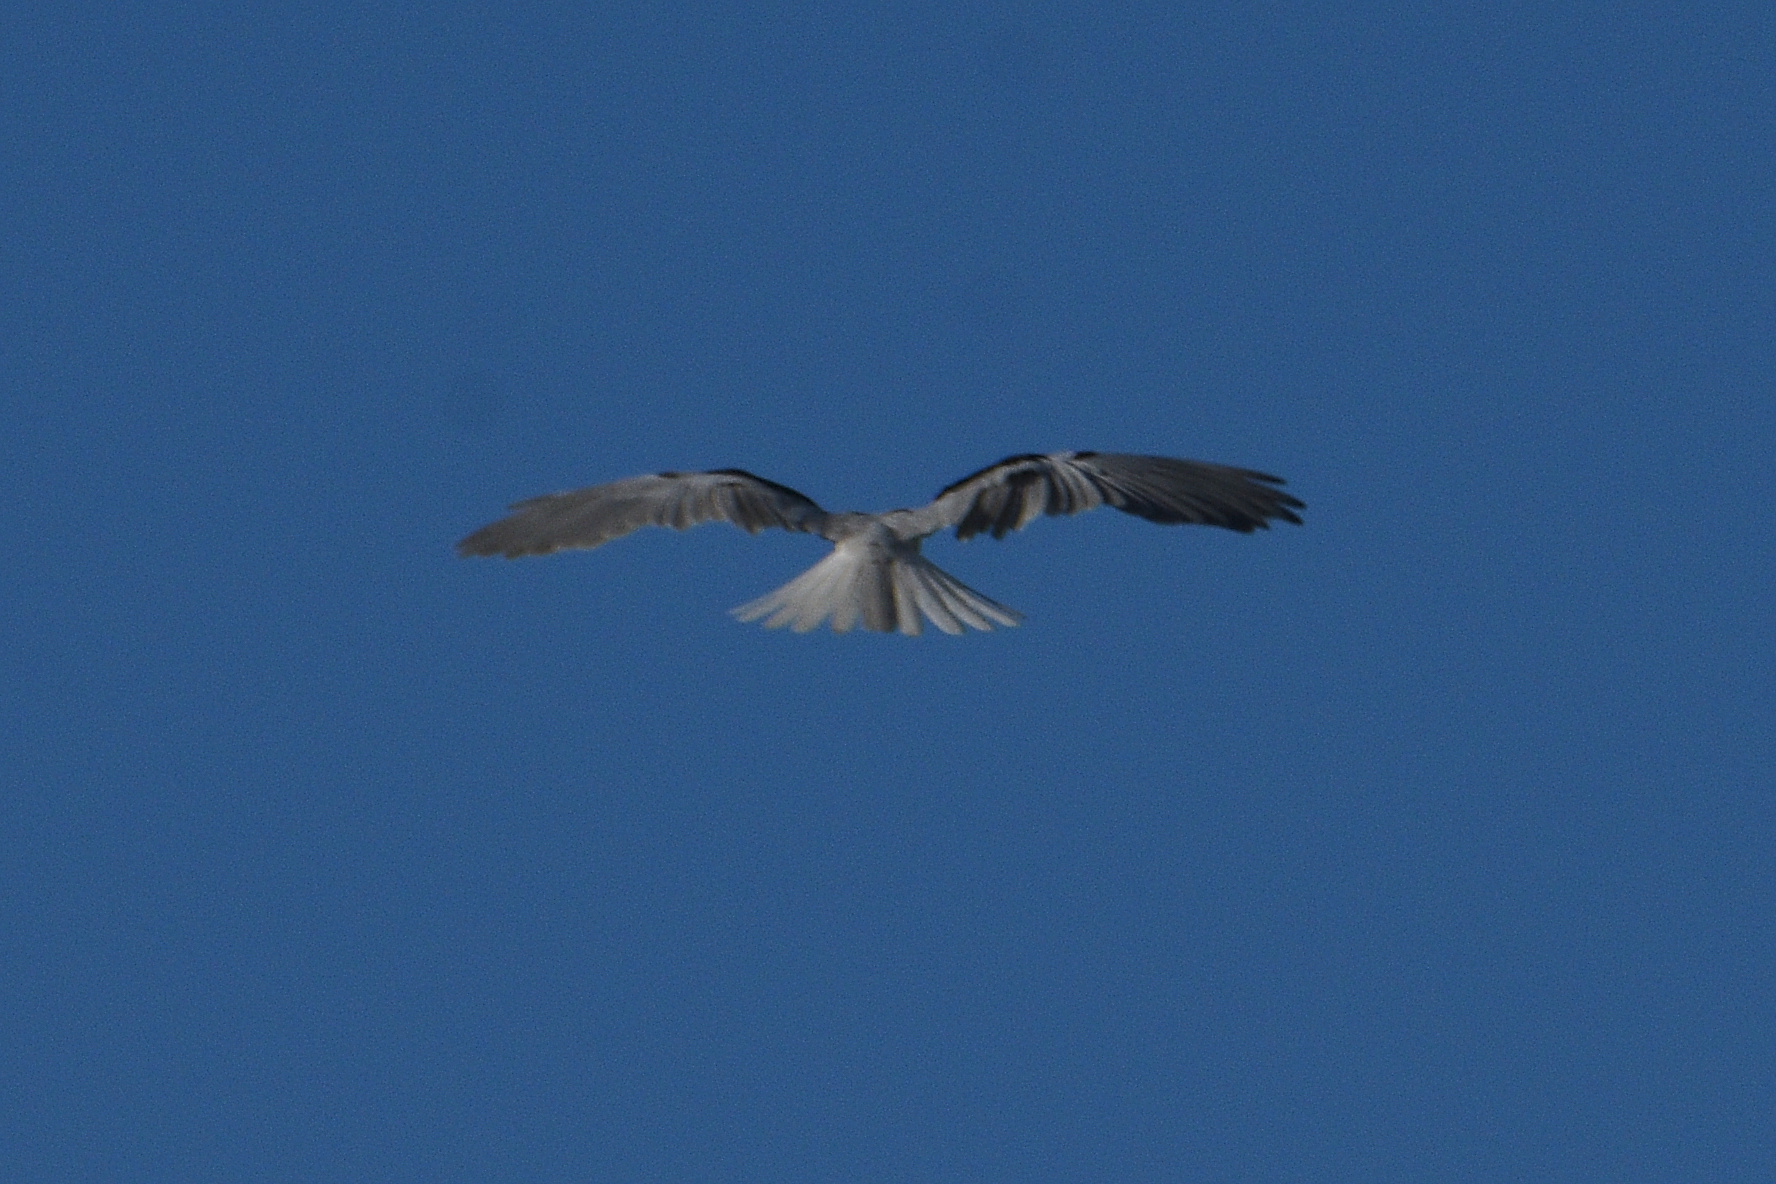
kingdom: Animalia
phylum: Chordata
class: Aves
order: Accipitriformes
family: Accipitridae
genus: Elanus
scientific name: Elanus leucurus
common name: White-tailed kite
